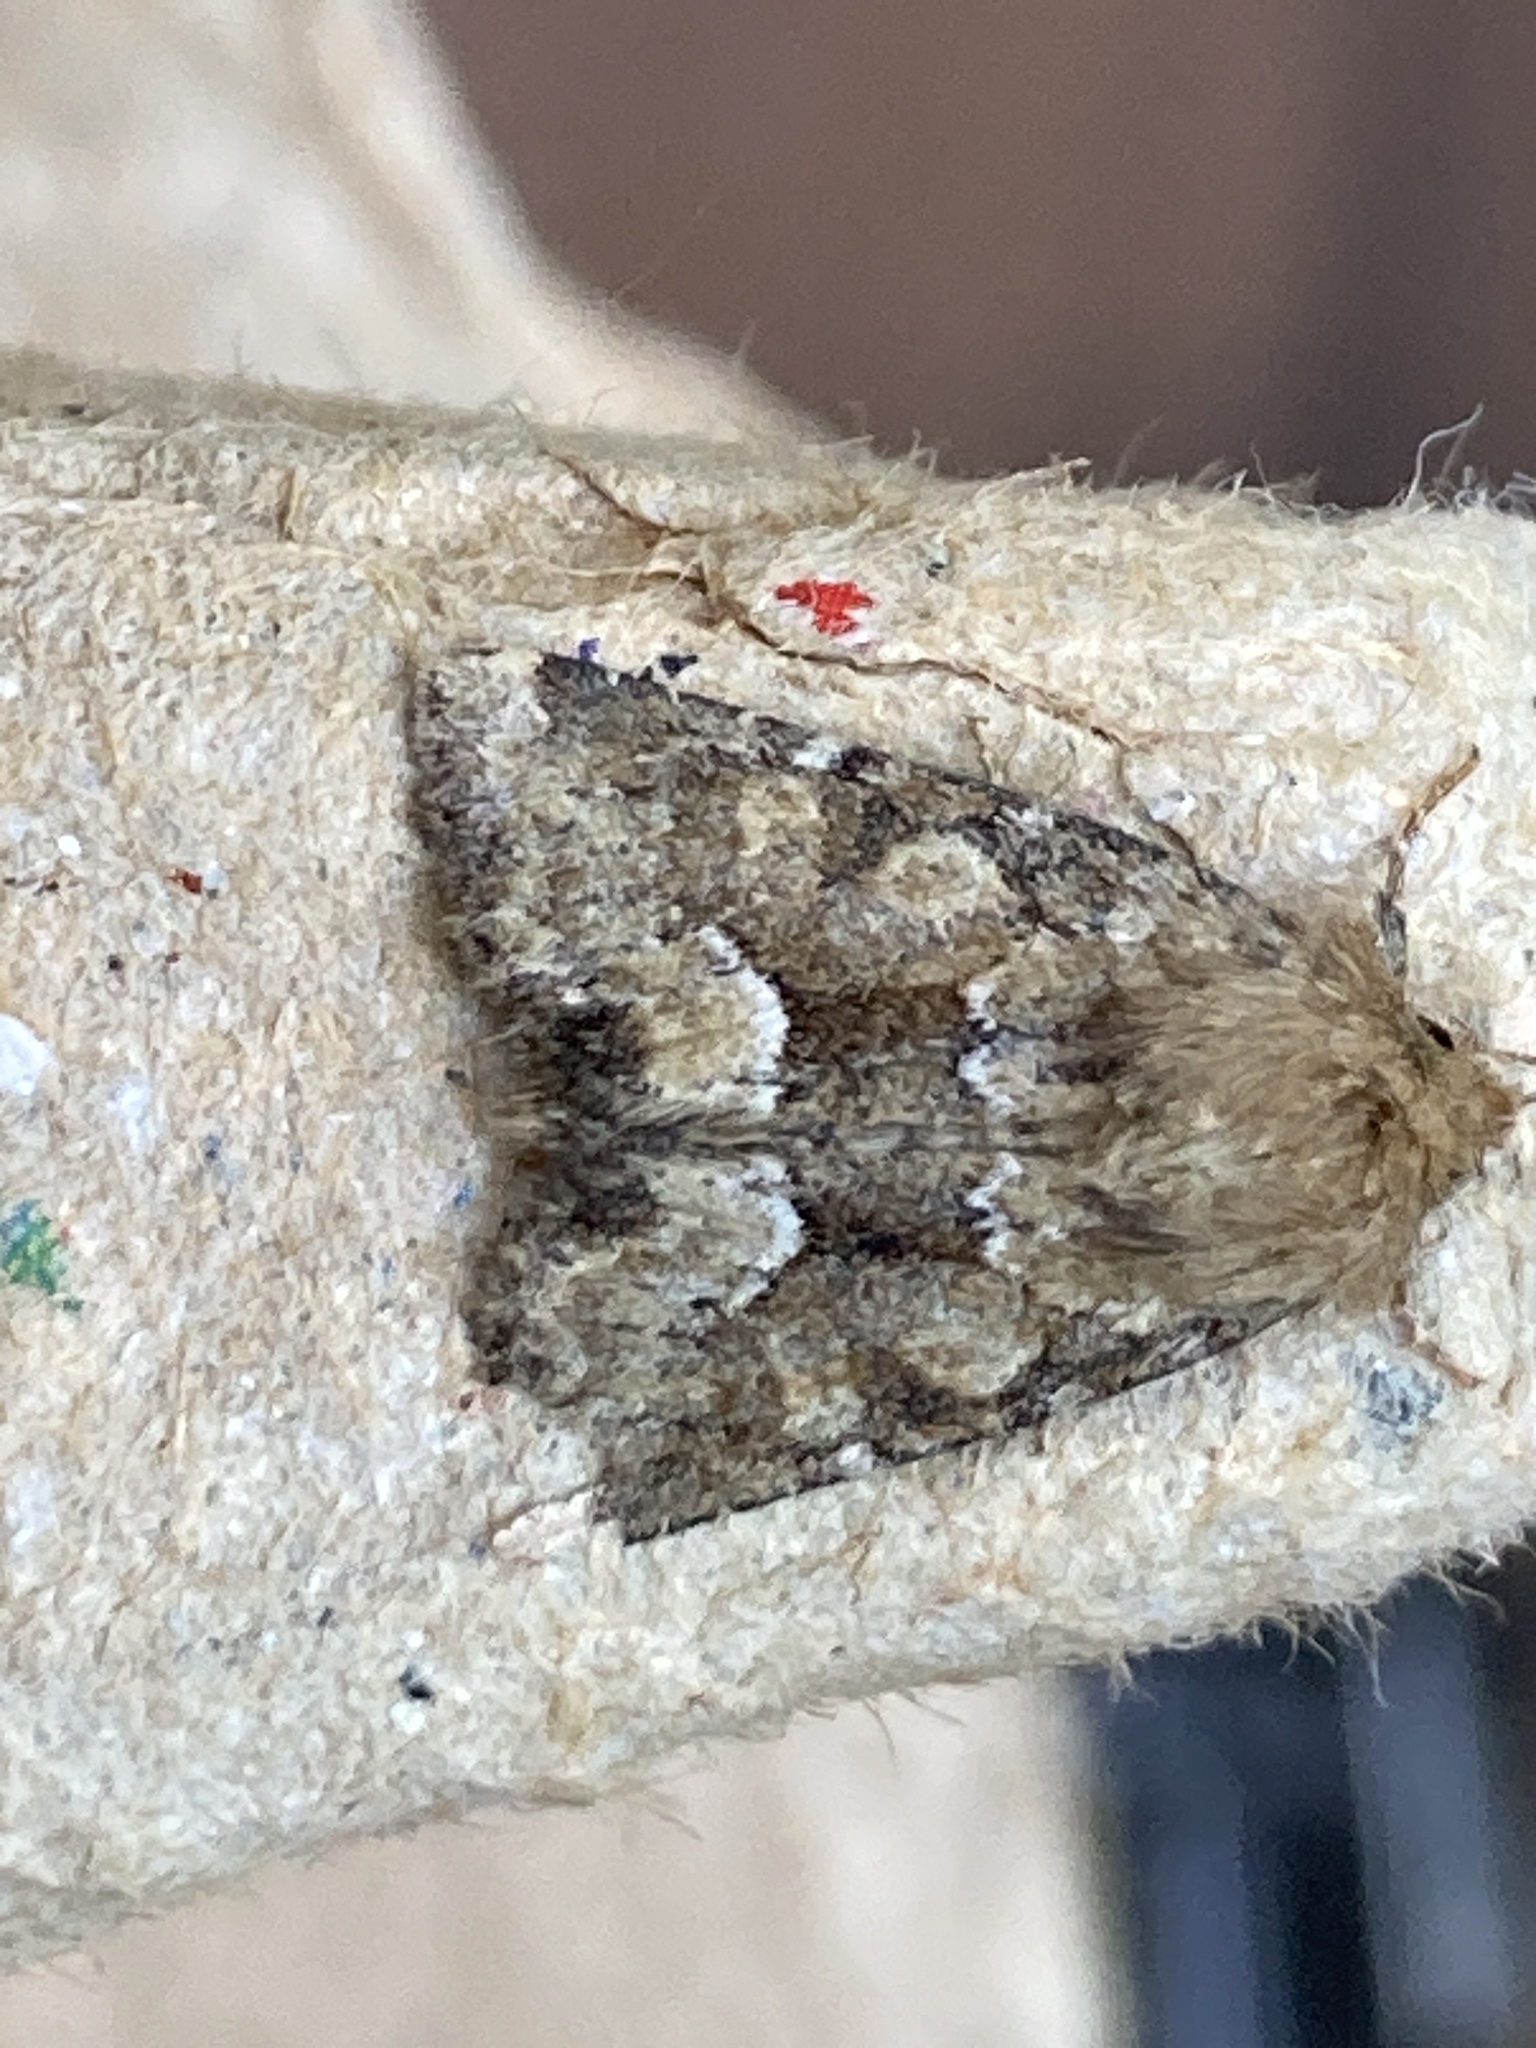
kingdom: Animalia
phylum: Arthropoda
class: Insecta
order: Lepidoptera
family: Noctuidae
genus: Oligia
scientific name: Oligia fasciuncula
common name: Middle-barred minor
